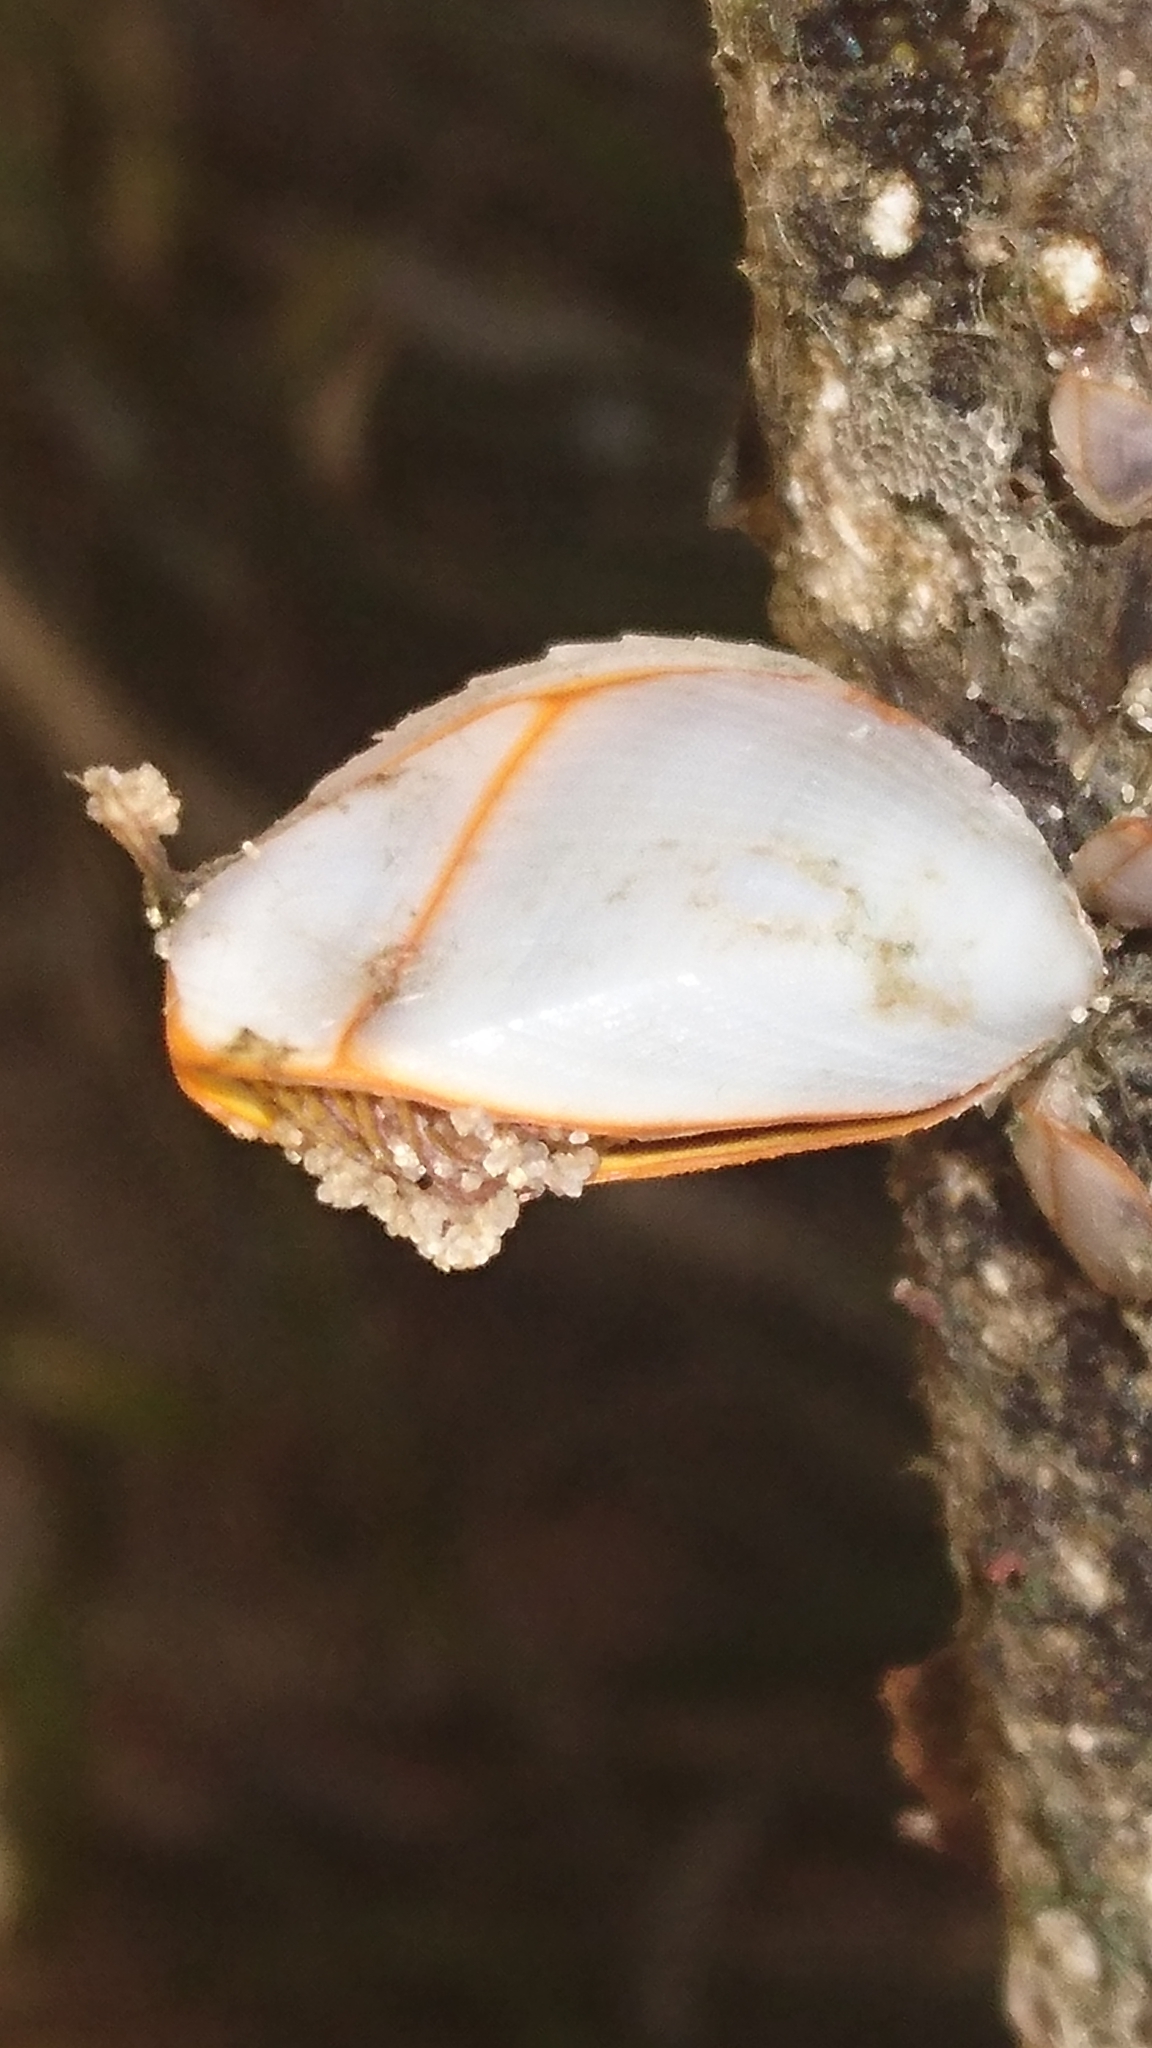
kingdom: Animalia
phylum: Arthropoda
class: Maxillopoda
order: Pedunculata
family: Lepadidae
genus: Lepas
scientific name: Lepas anserifera
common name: Goose barnacle
